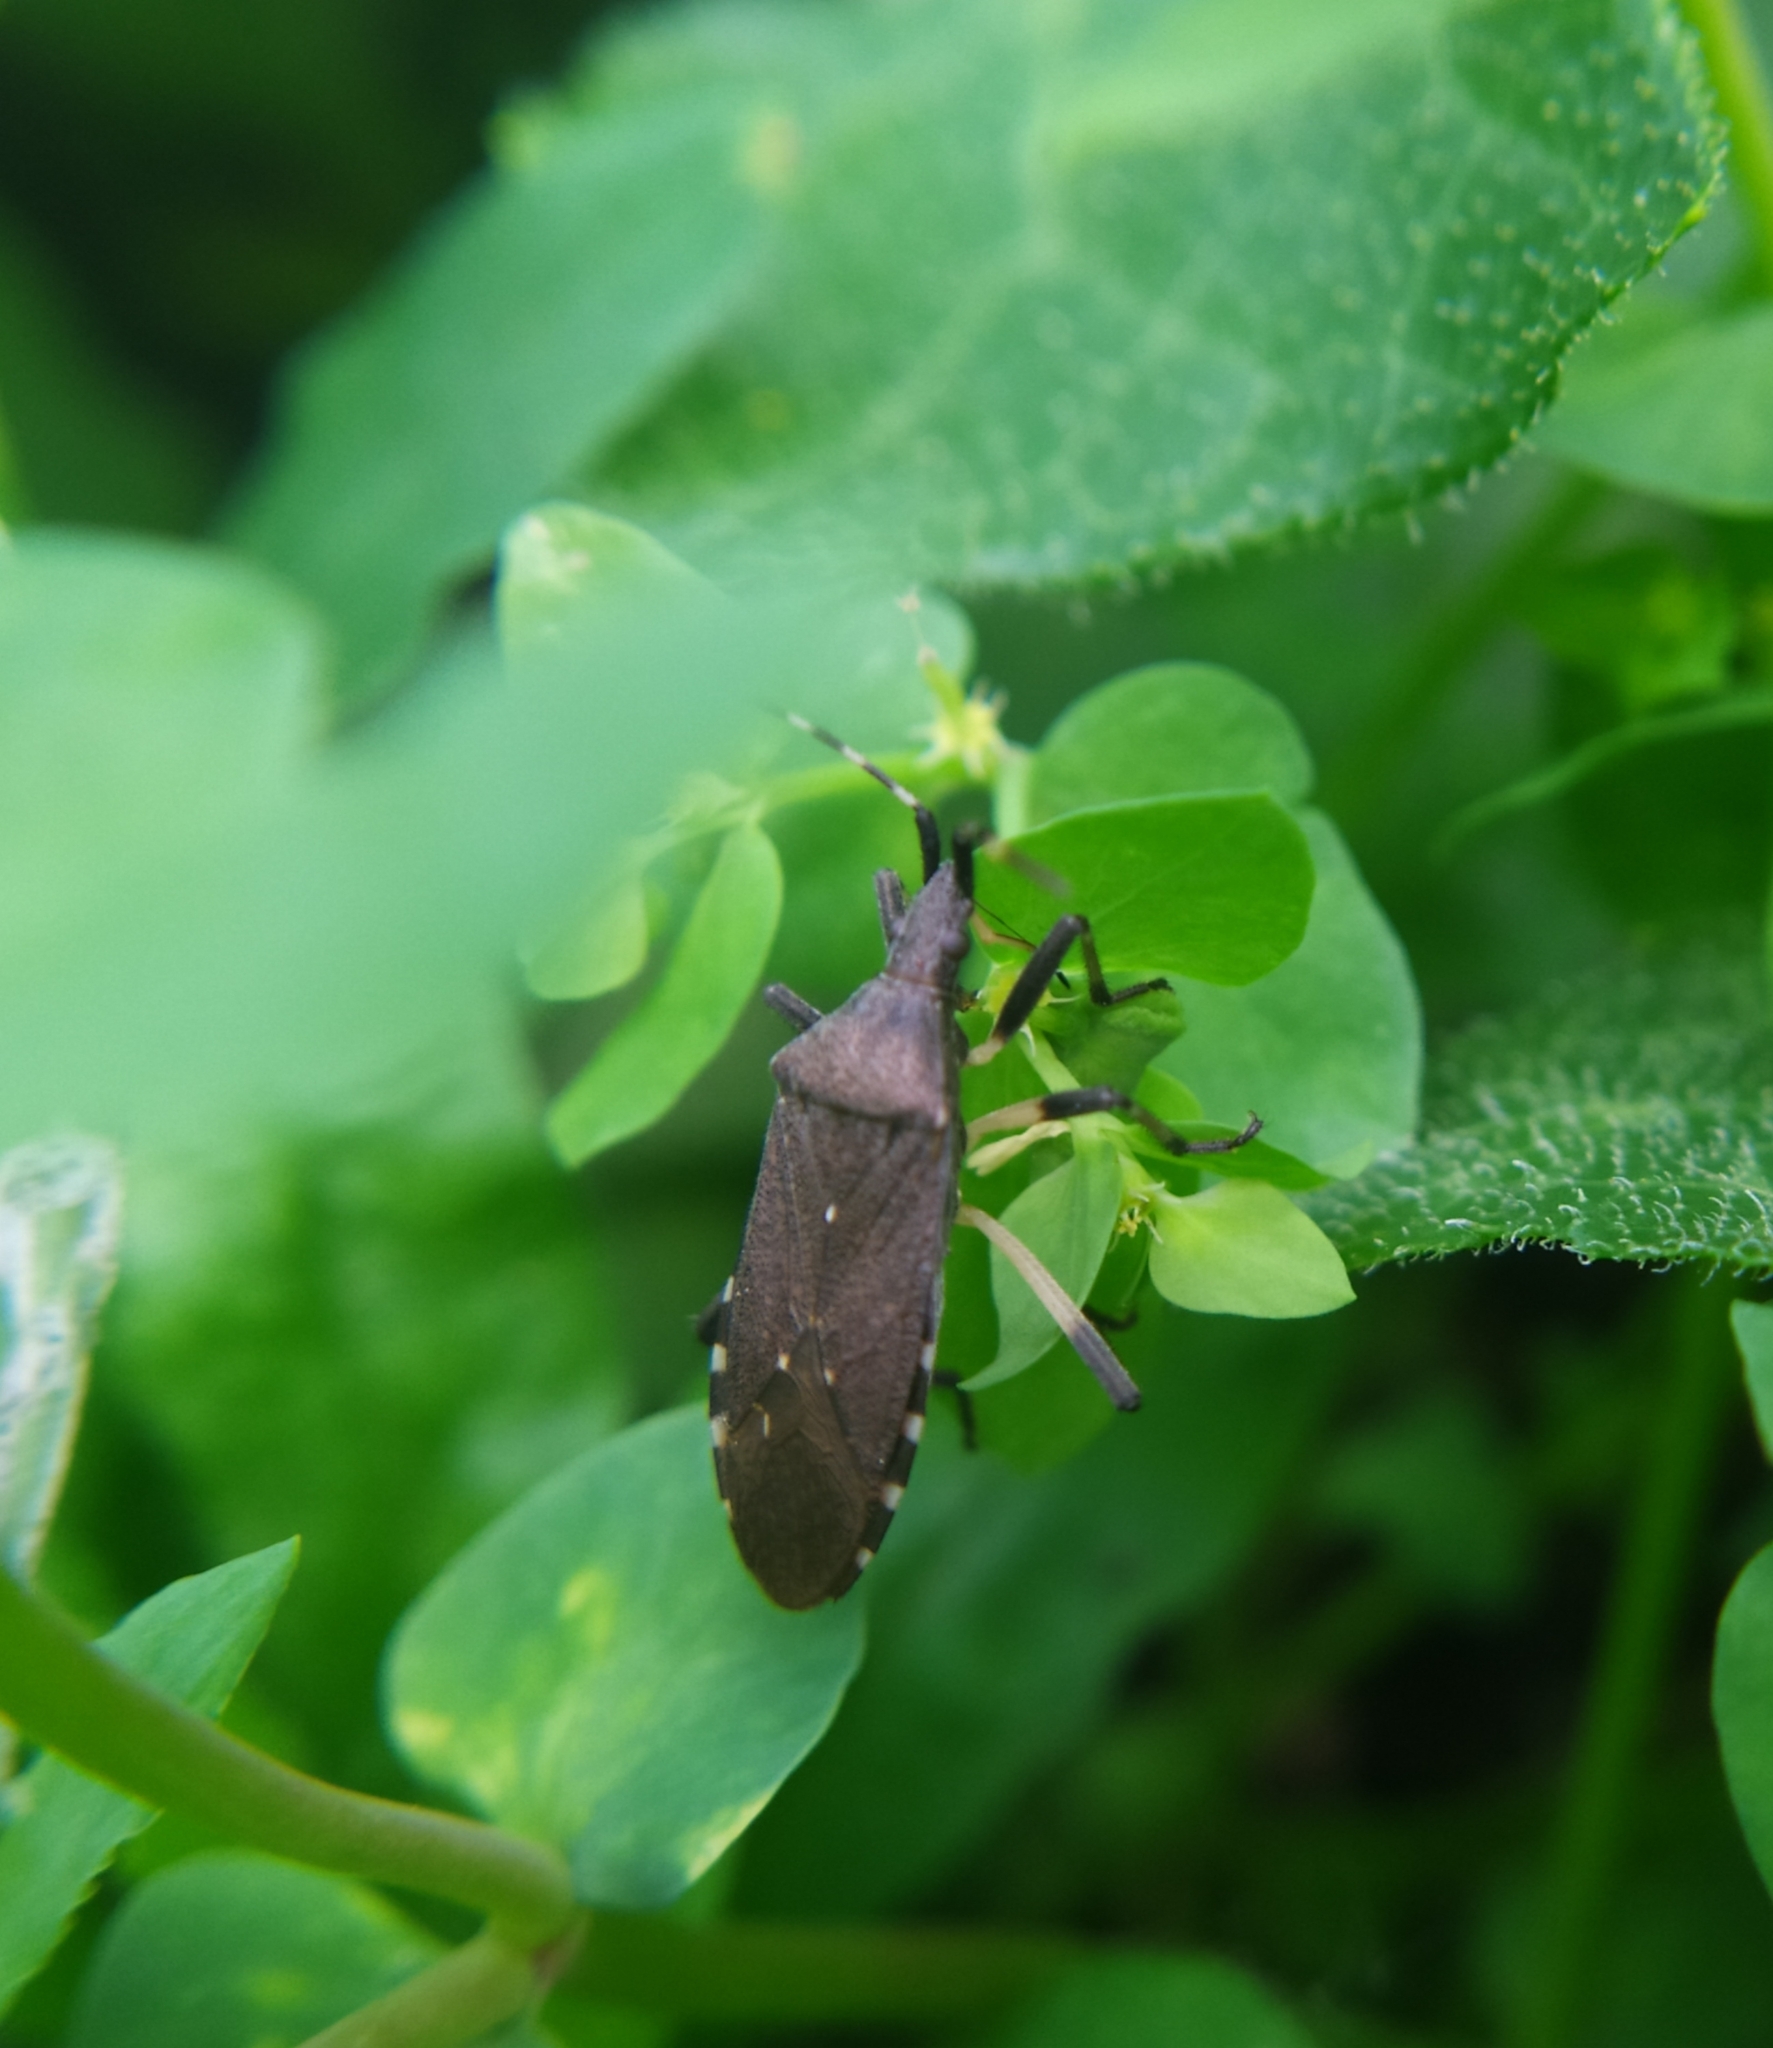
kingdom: Animalia
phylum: Arthropoda
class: Insecta
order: Hemiptera
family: Stenocephalidae
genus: Dicranocephalus
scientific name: Dicranocephalus agilis
